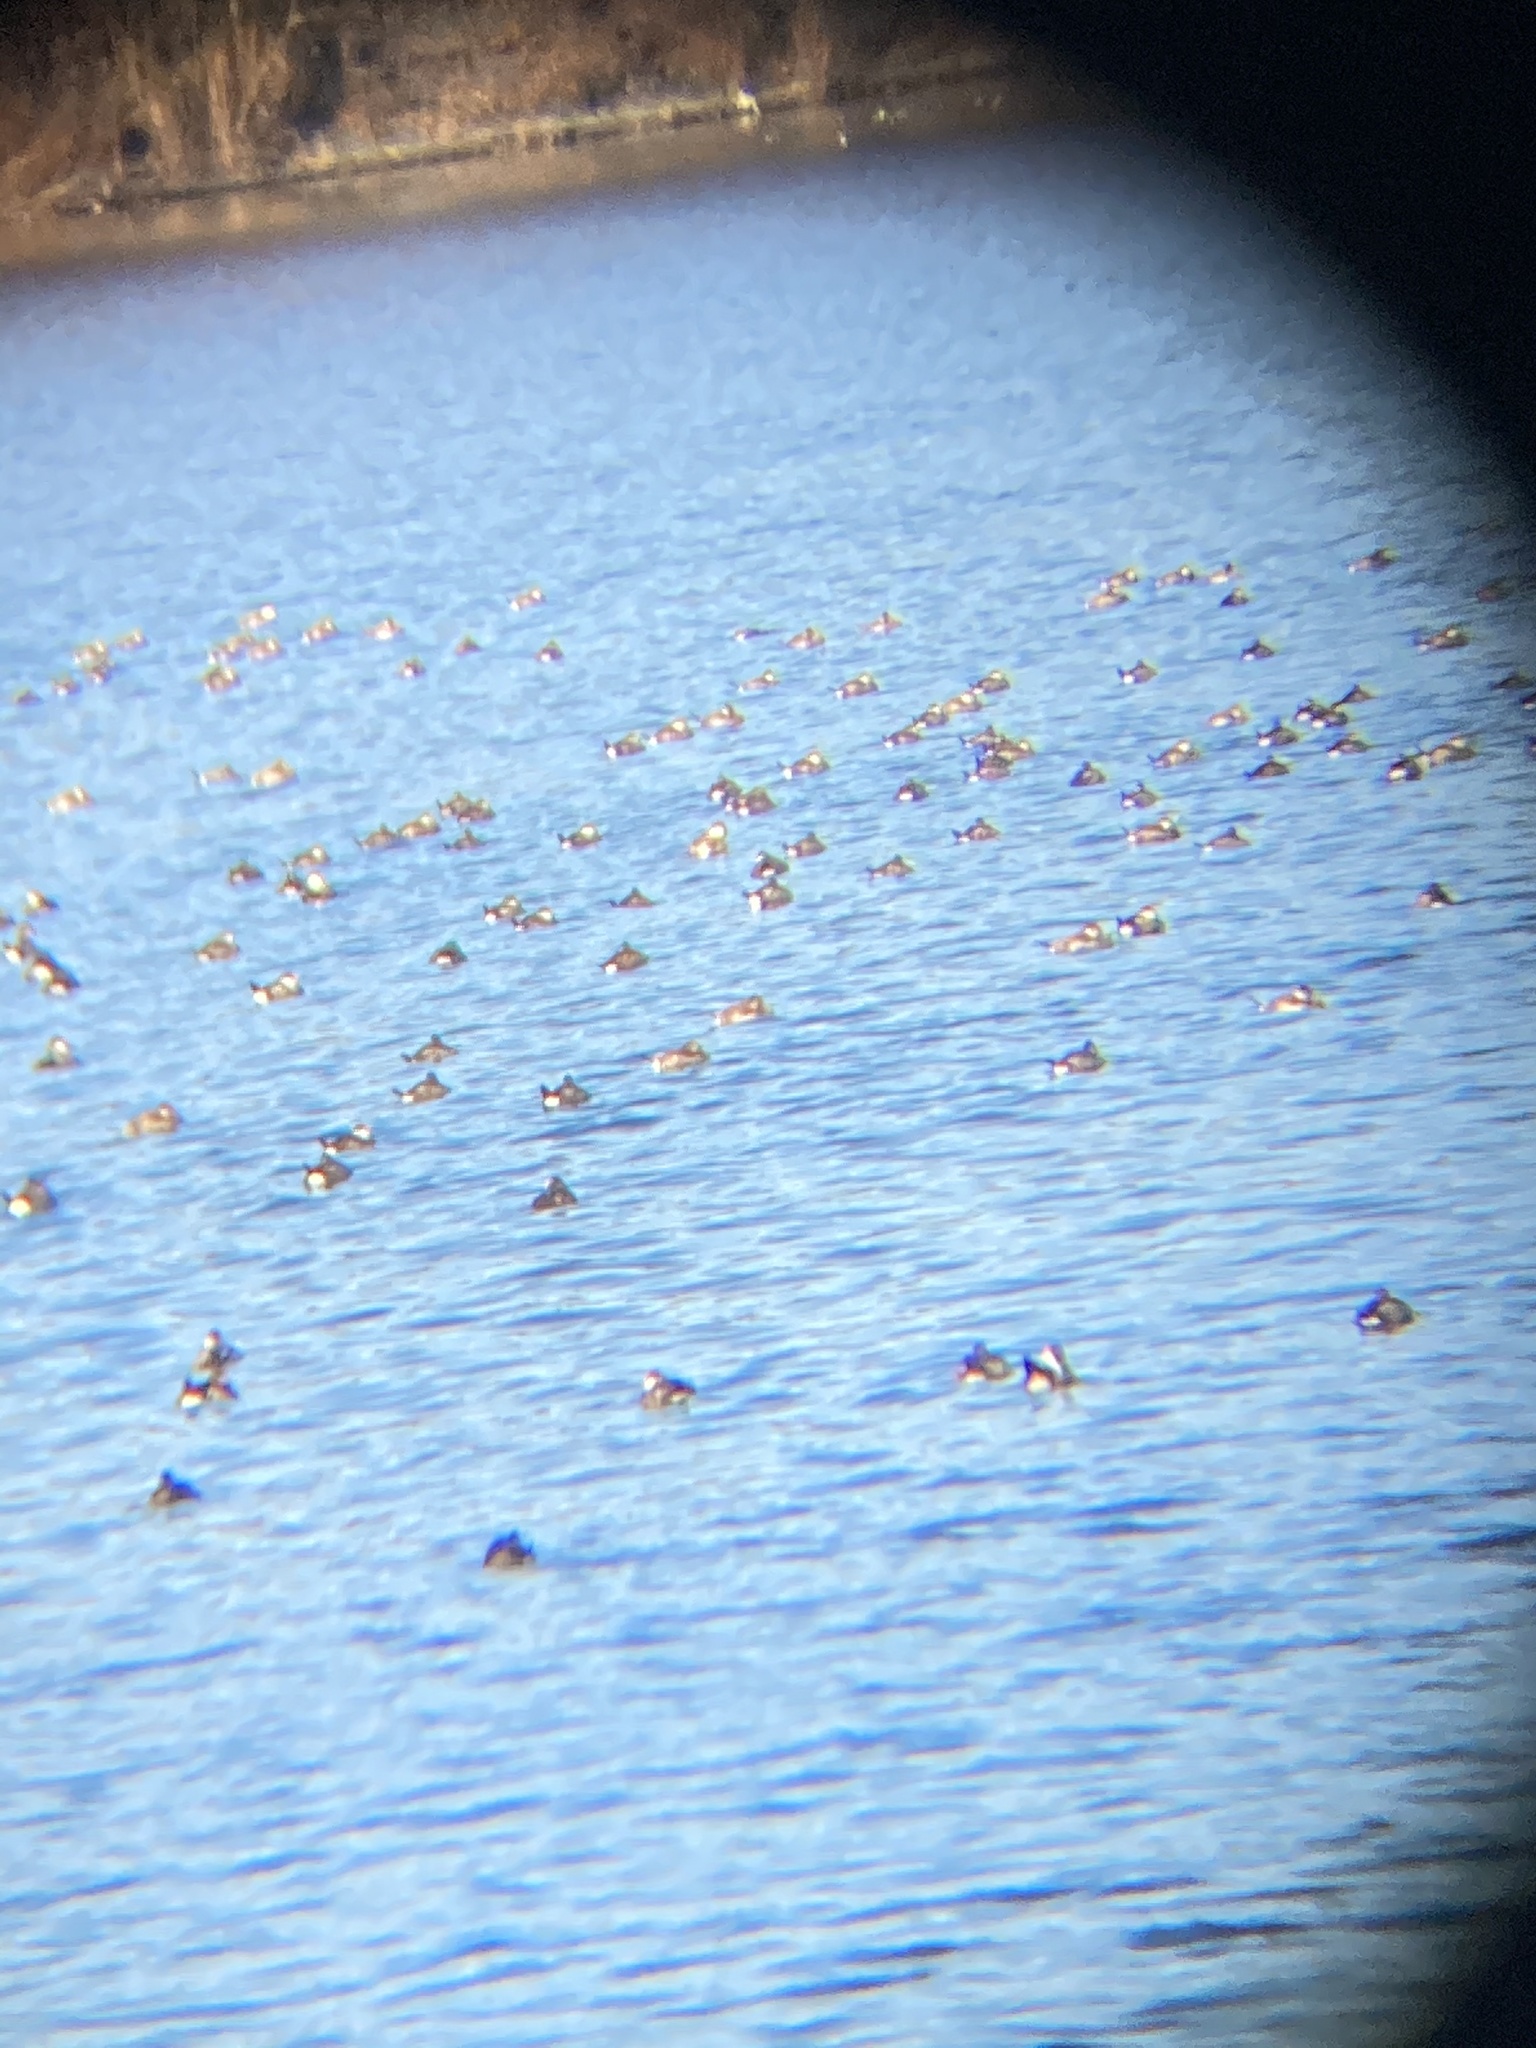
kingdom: Animalia
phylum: Chordata
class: Aves
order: Anseriformes
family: Anatidae
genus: Oxyura
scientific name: Oxyura jamaicensis
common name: Ruddy duck
